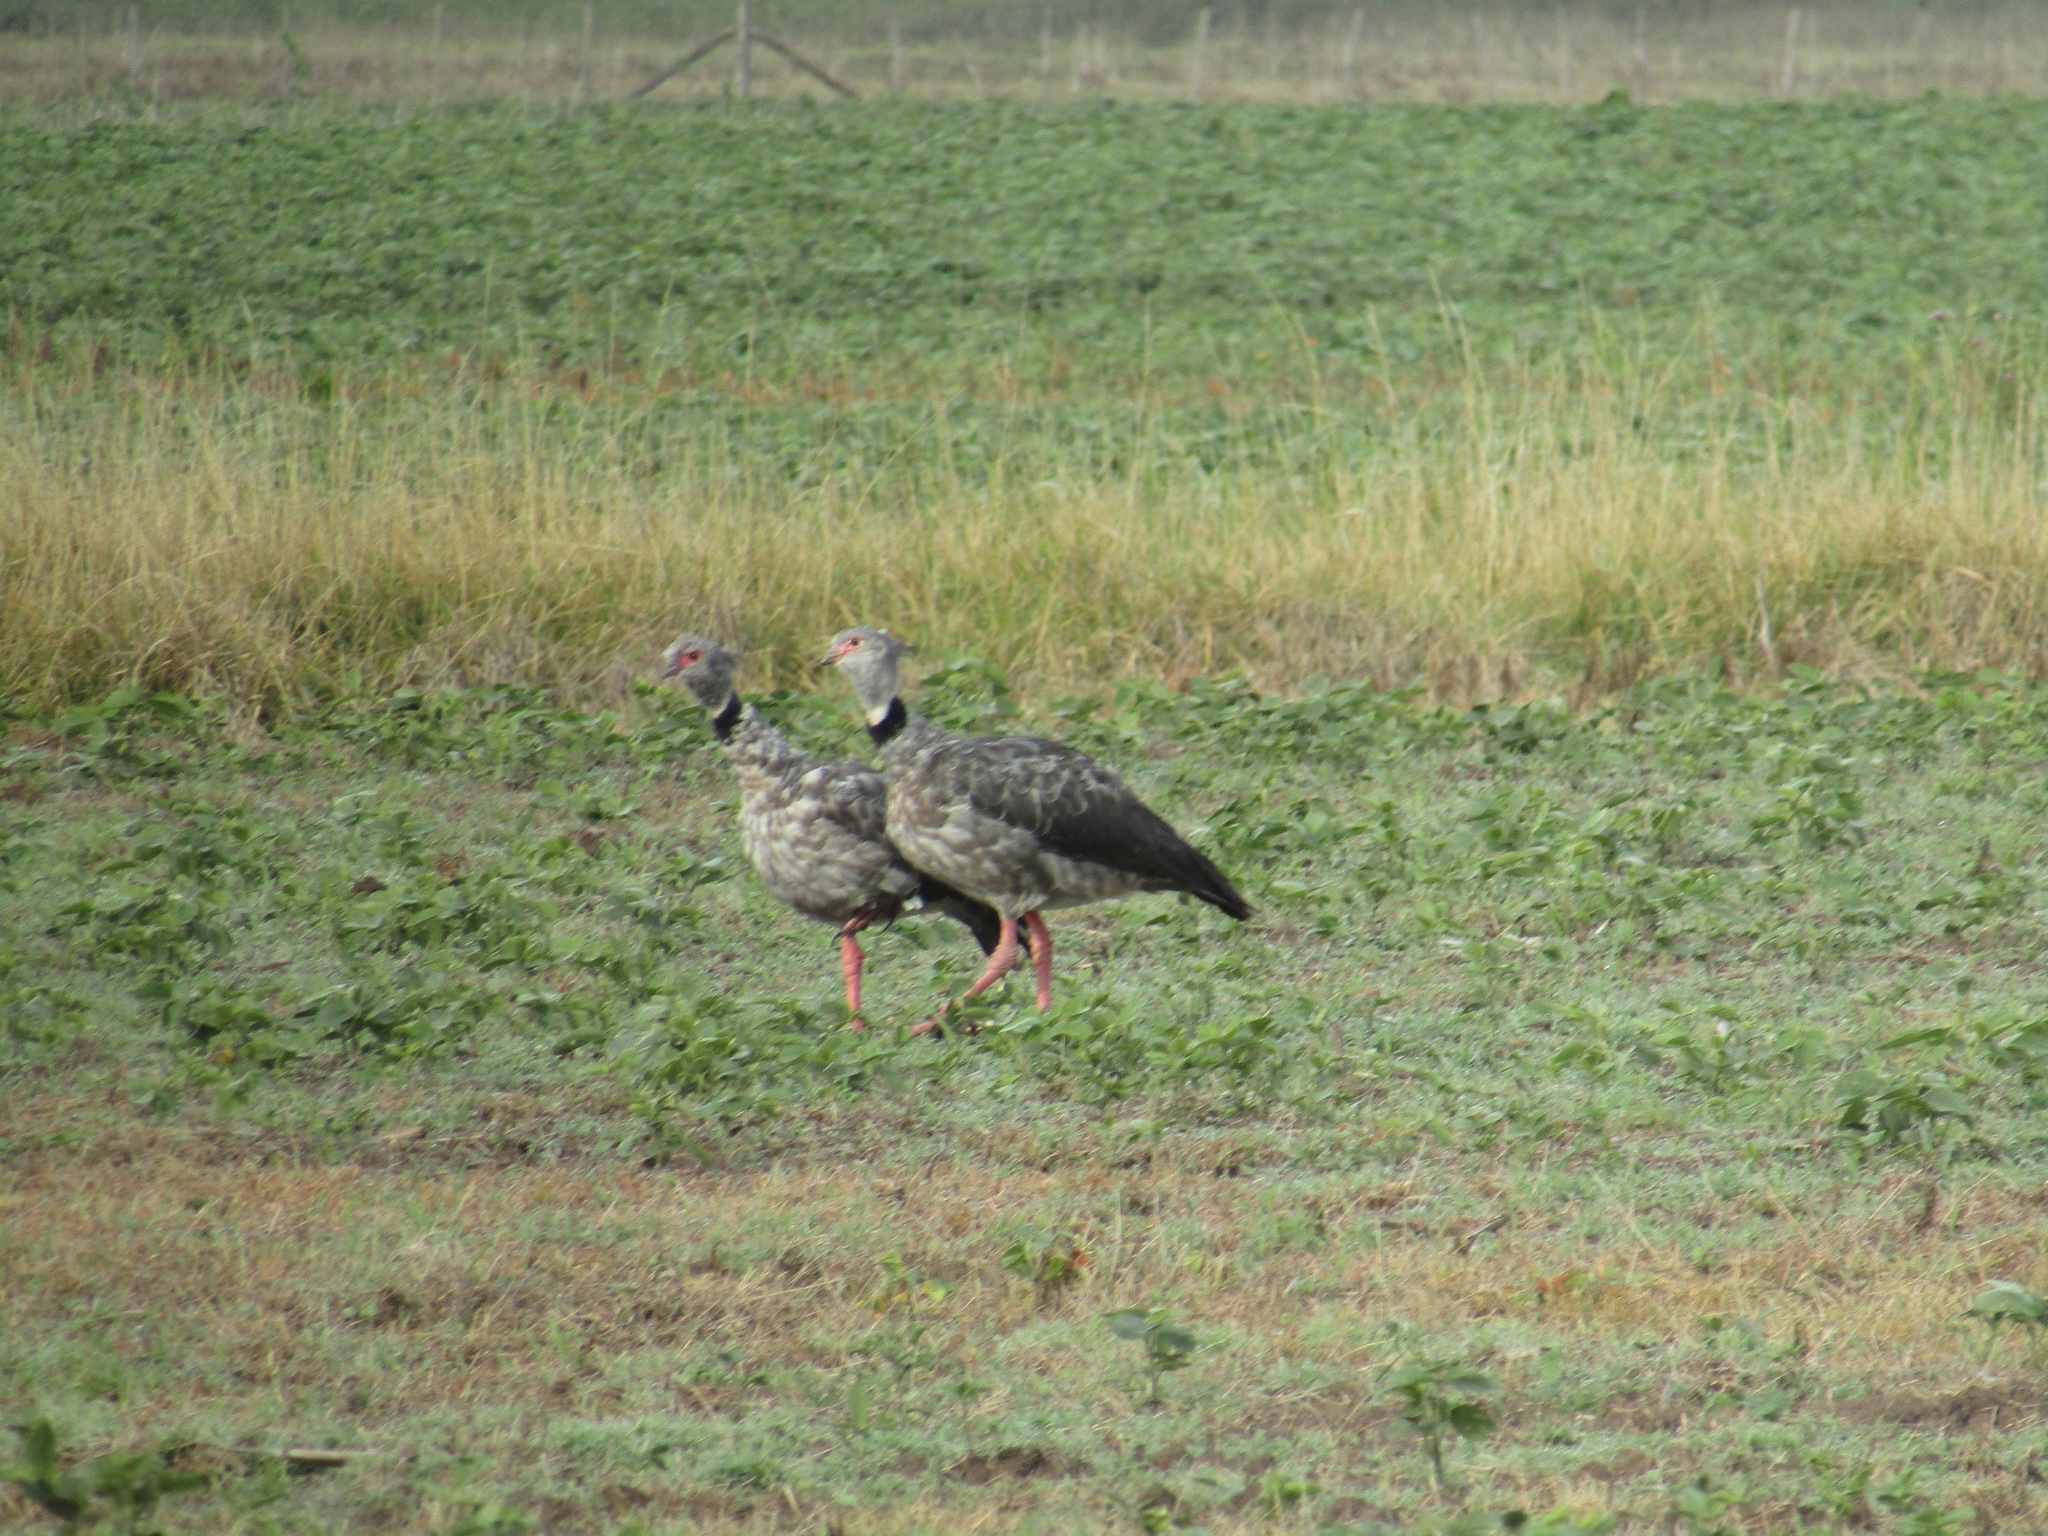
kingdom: Animalia
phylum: Chordata
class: Aves
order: Anseriformes
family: Anhimidae
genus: Chauna
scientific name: Chauna torquata
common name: Southern screamer
